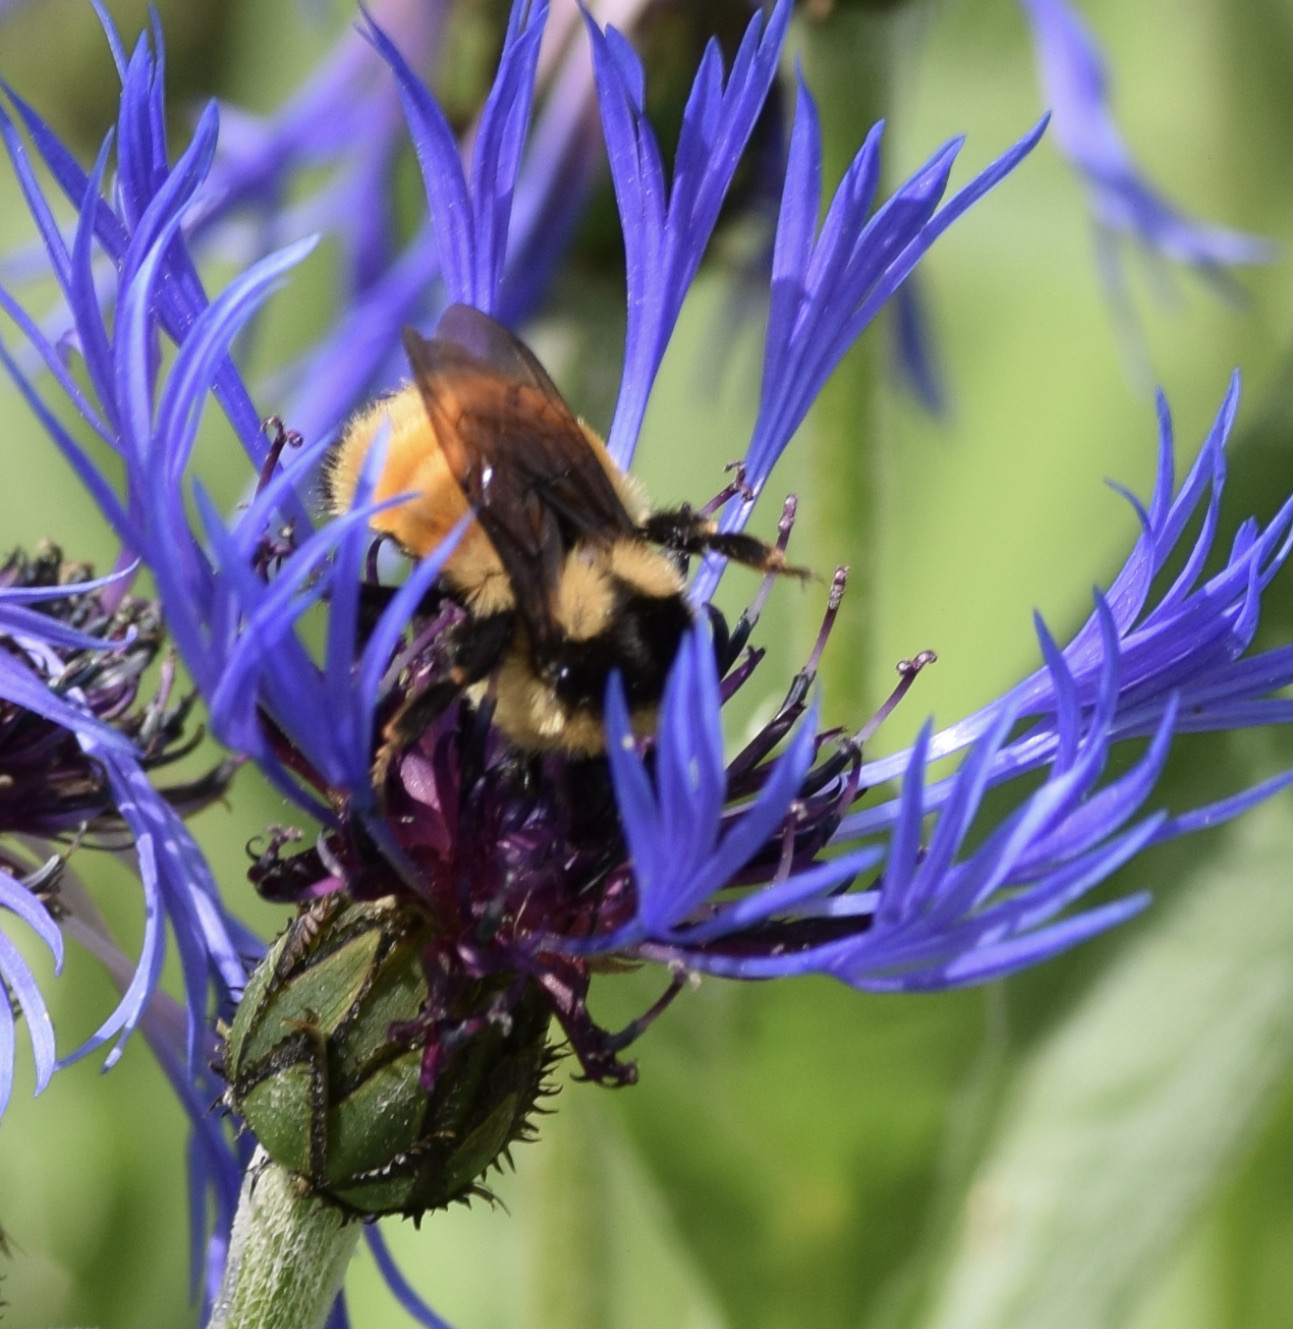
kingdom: Animalia
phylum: Arthropoda
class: Insecta
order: Hymenoptera
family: Apidae
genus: Bombus
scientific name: Bombus ternarius
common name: Tri-colored bumble bee
